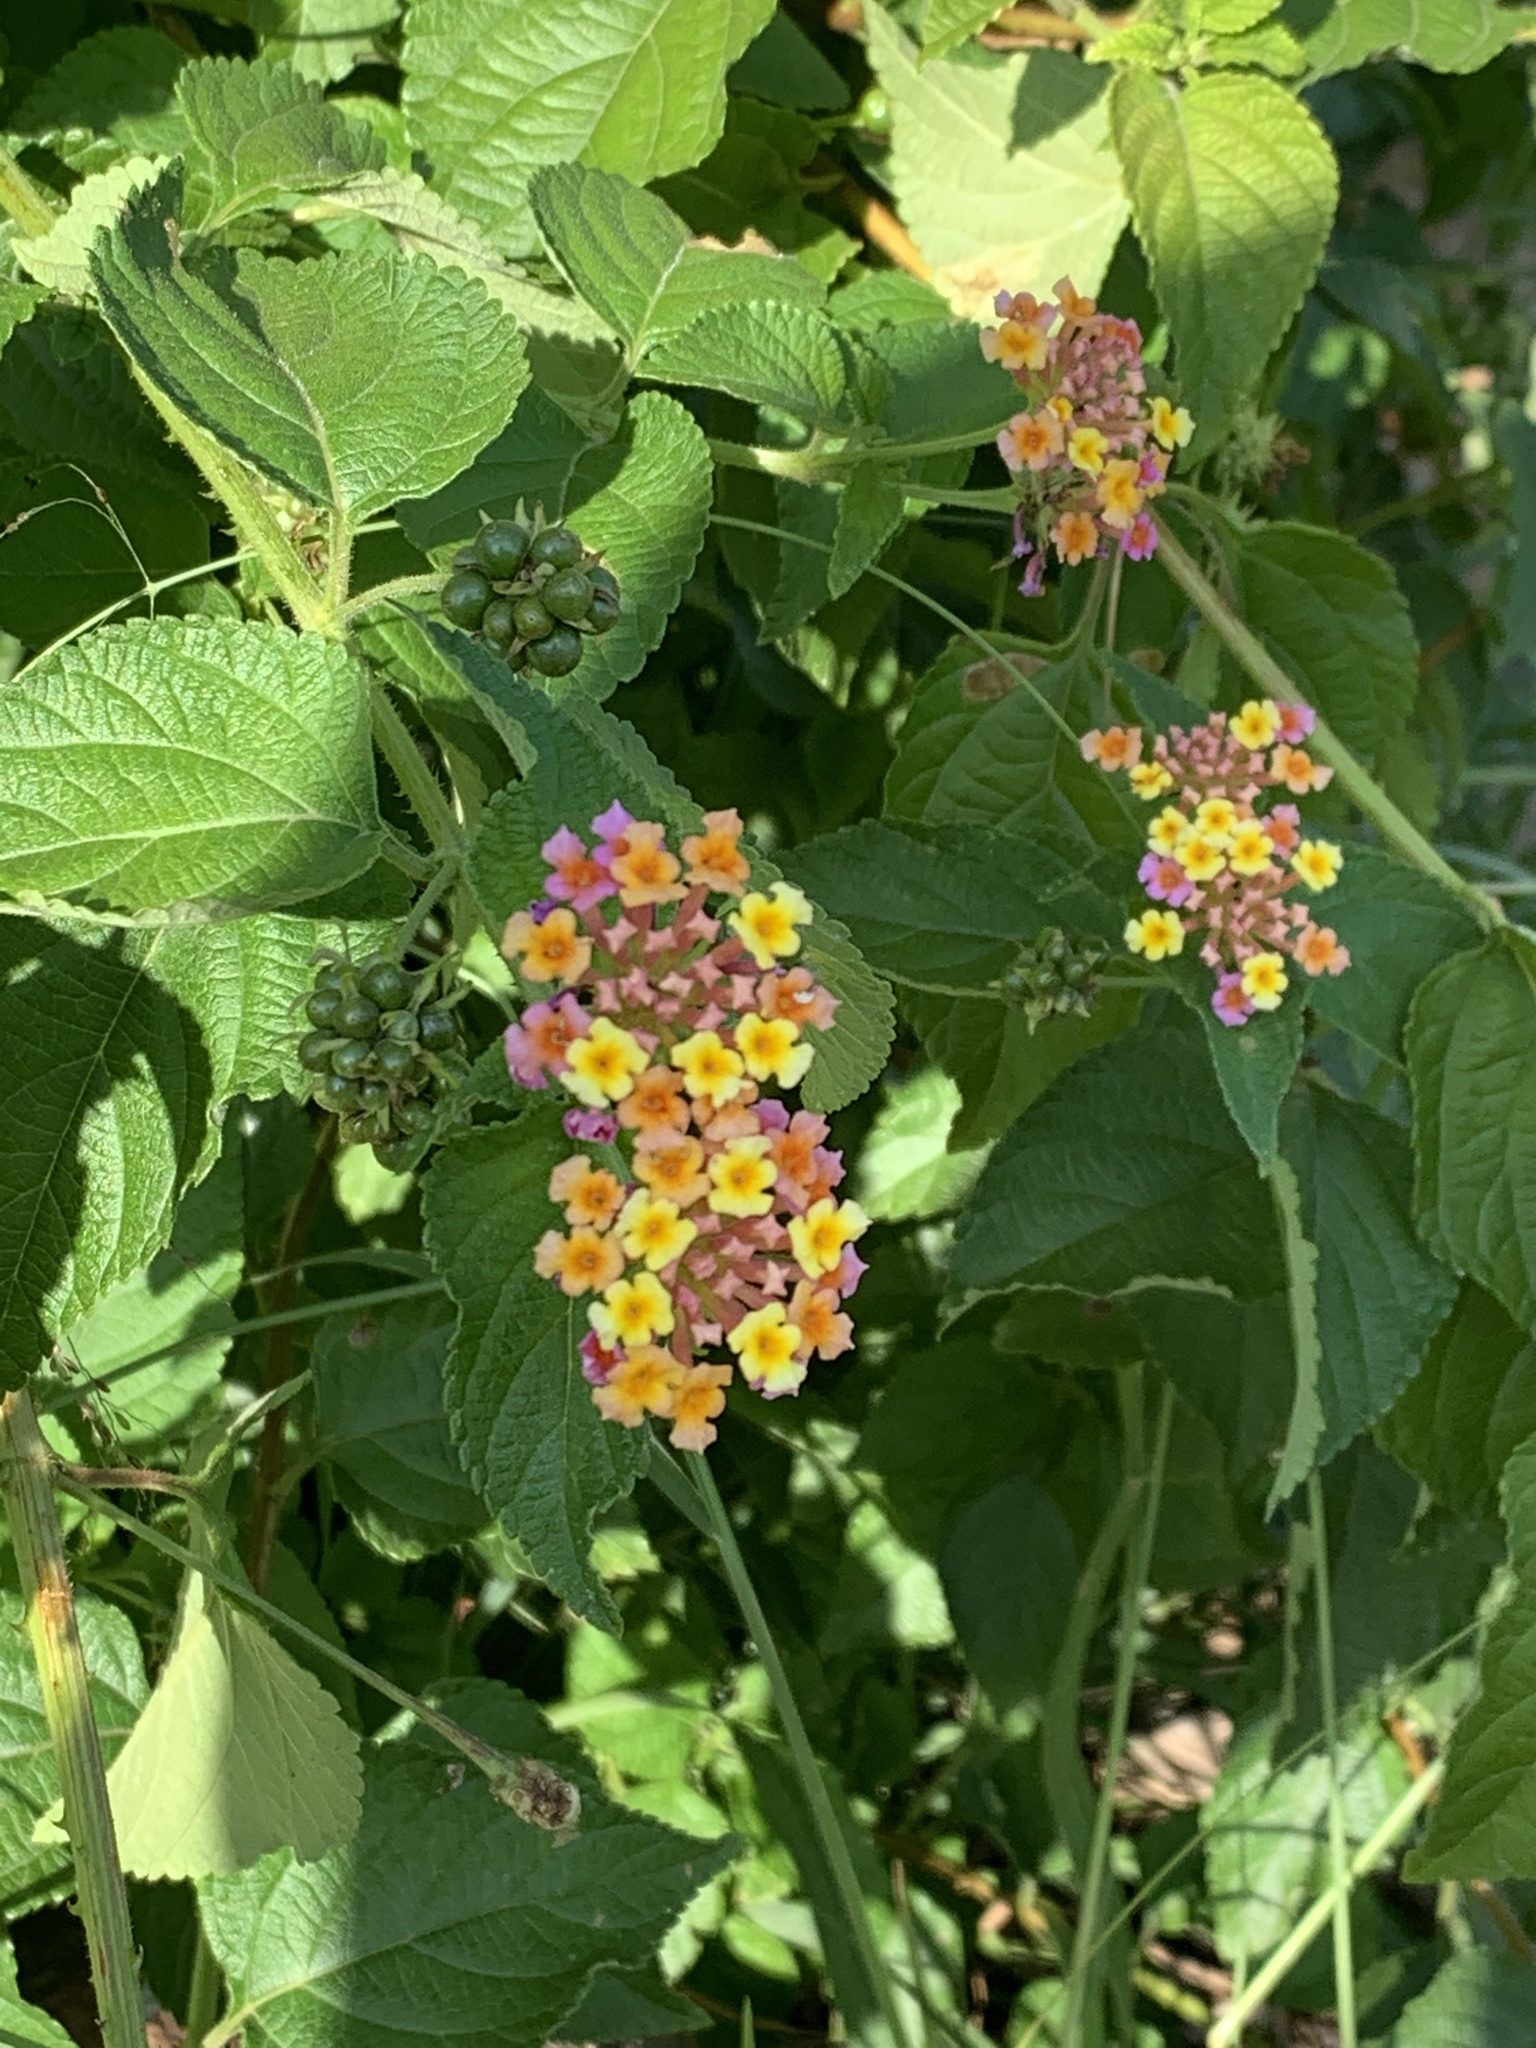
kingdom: Plantae
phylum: Tracheophyta
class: Magnoliopsida
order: Lamiales
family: Verbenaceae
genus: Lantana
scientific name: Lantana camara
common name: Lantana
